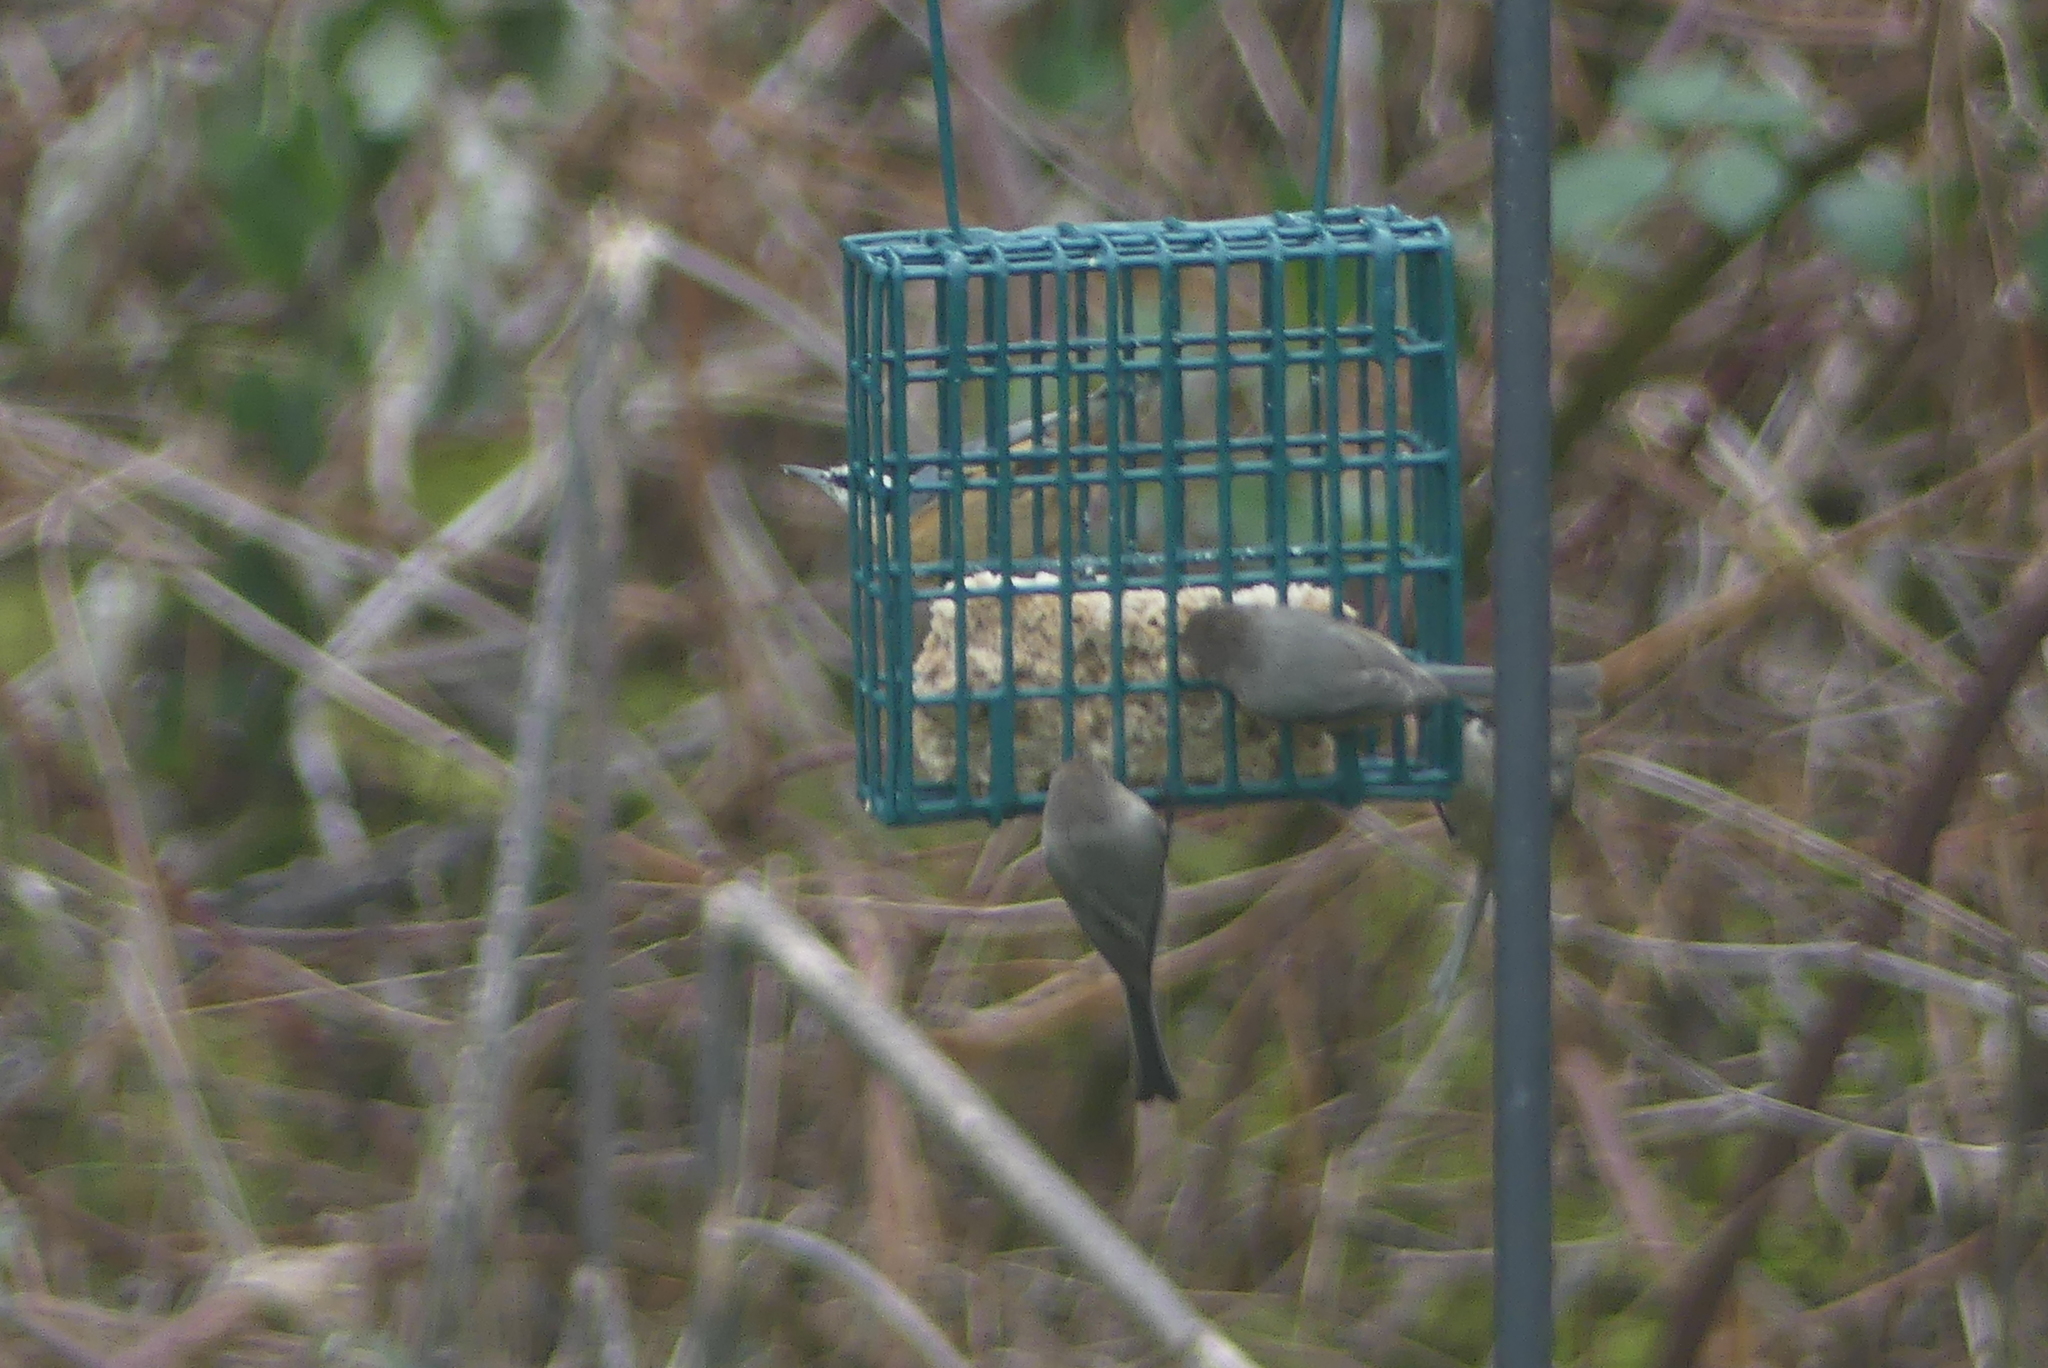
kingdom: Animalia
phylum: Chordata
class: Aves
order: Passeriformes
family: Sittidae
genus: Sitta
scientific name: Sitta canadensis
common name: Red-breasted nuthatch
